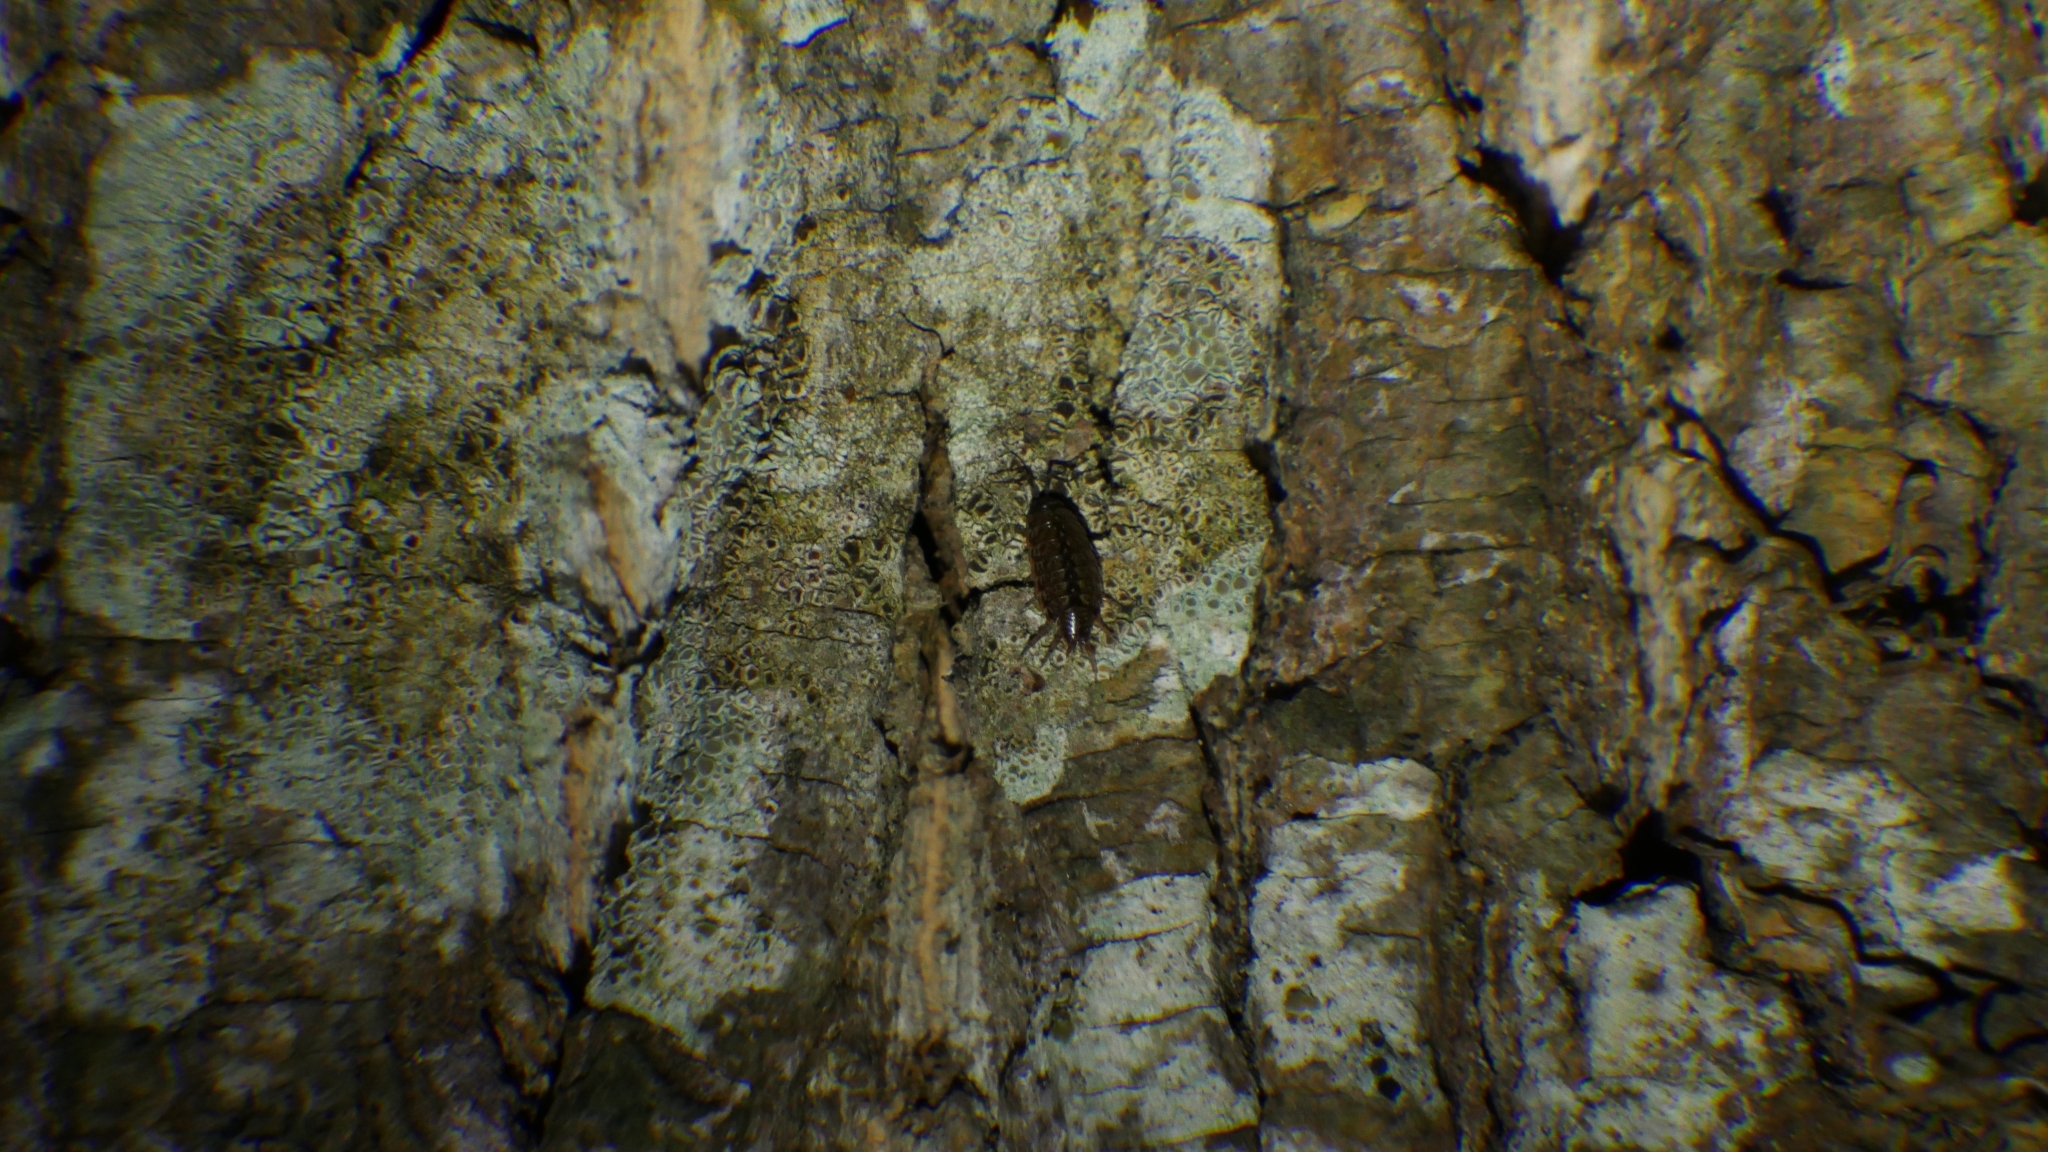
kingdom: Animalia
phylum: Arthropoda
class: Malacostraca
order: Isopoda
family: Philosciidae
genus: Philoscia
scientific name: Philoscia muscorum
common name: Common striped woodlouse
